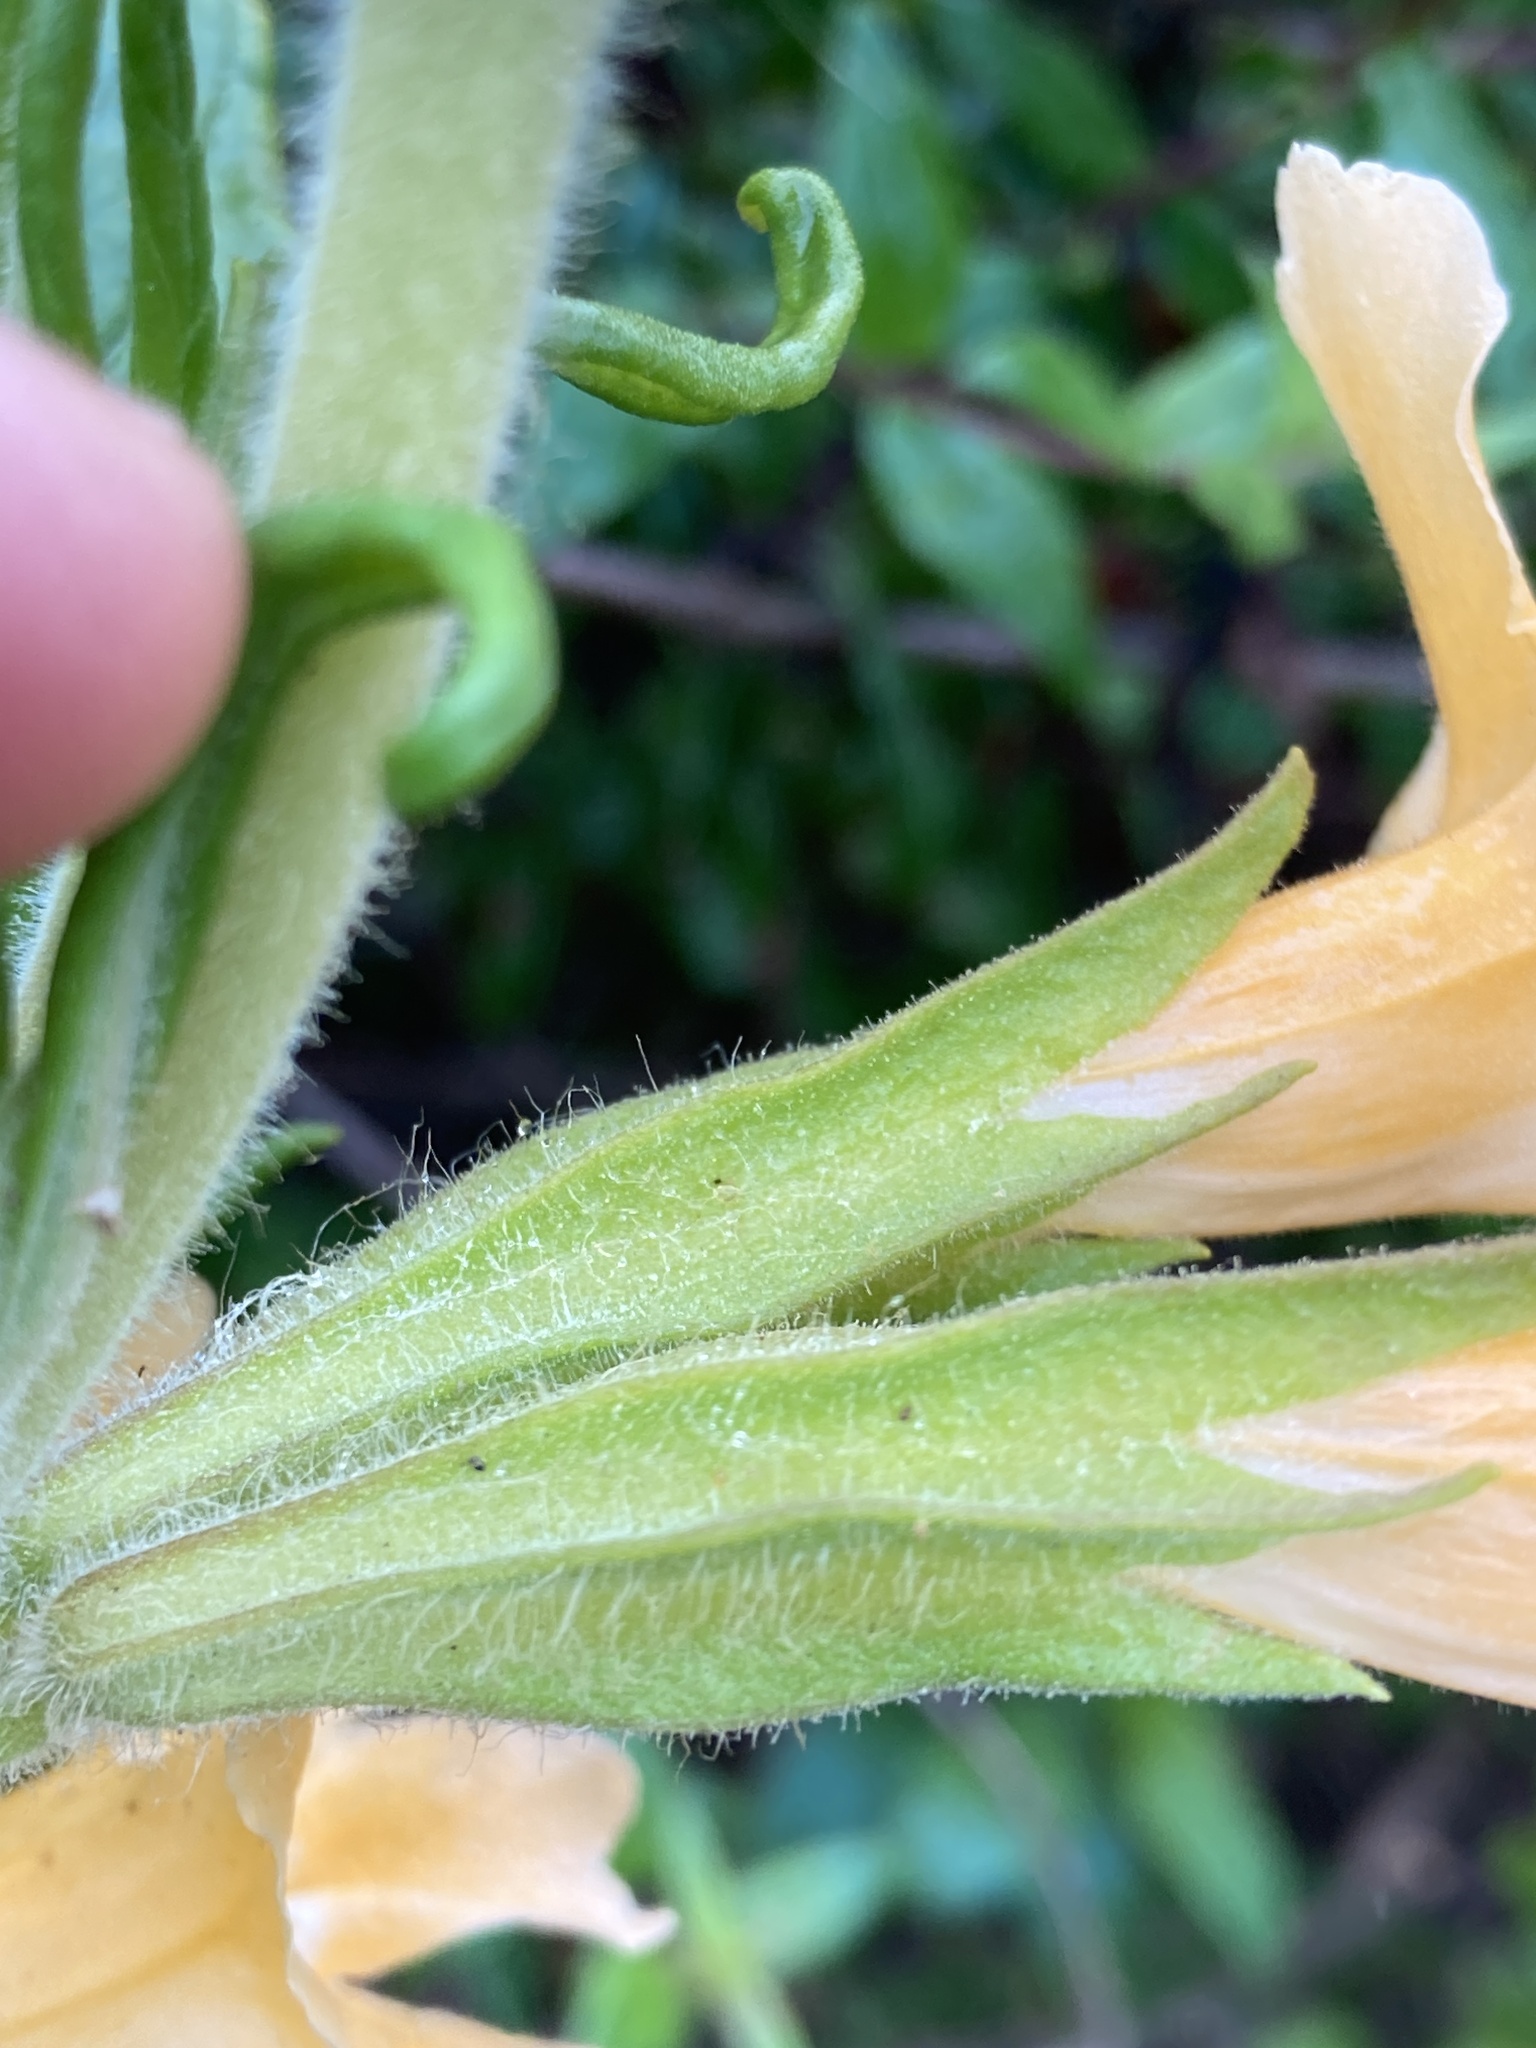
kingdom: Plantae
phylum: Tracheophyta
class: Magnoliopsida
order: Lamiales
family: Phrymaceae
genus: Diplacus
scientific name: Diplacus longiflorus
